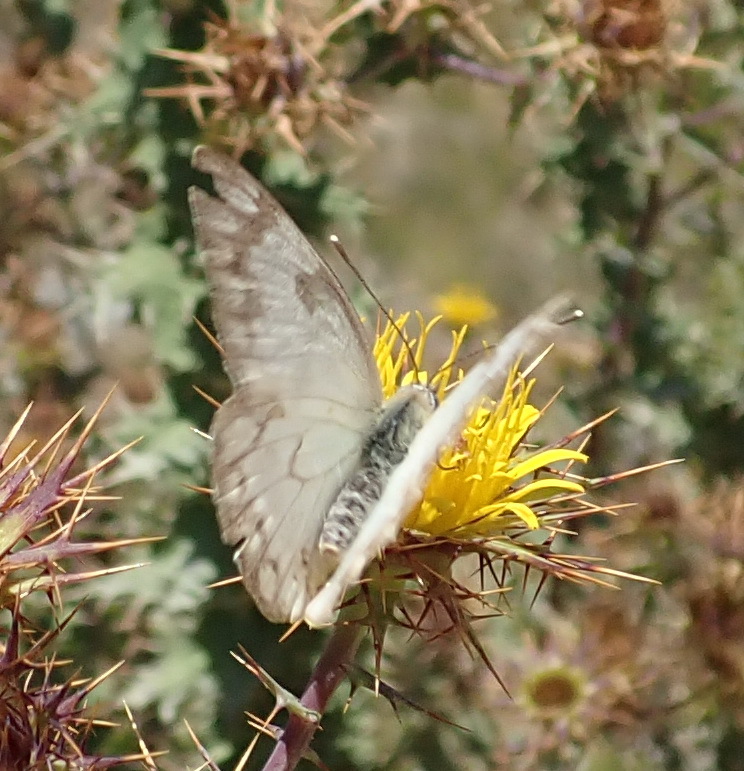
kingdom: Animalia
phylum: Arthropoda
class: Insecta
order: Lepidoptera
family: Pieridae
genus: Belenois
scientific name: Belenois aurota
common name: Brown-veined white
